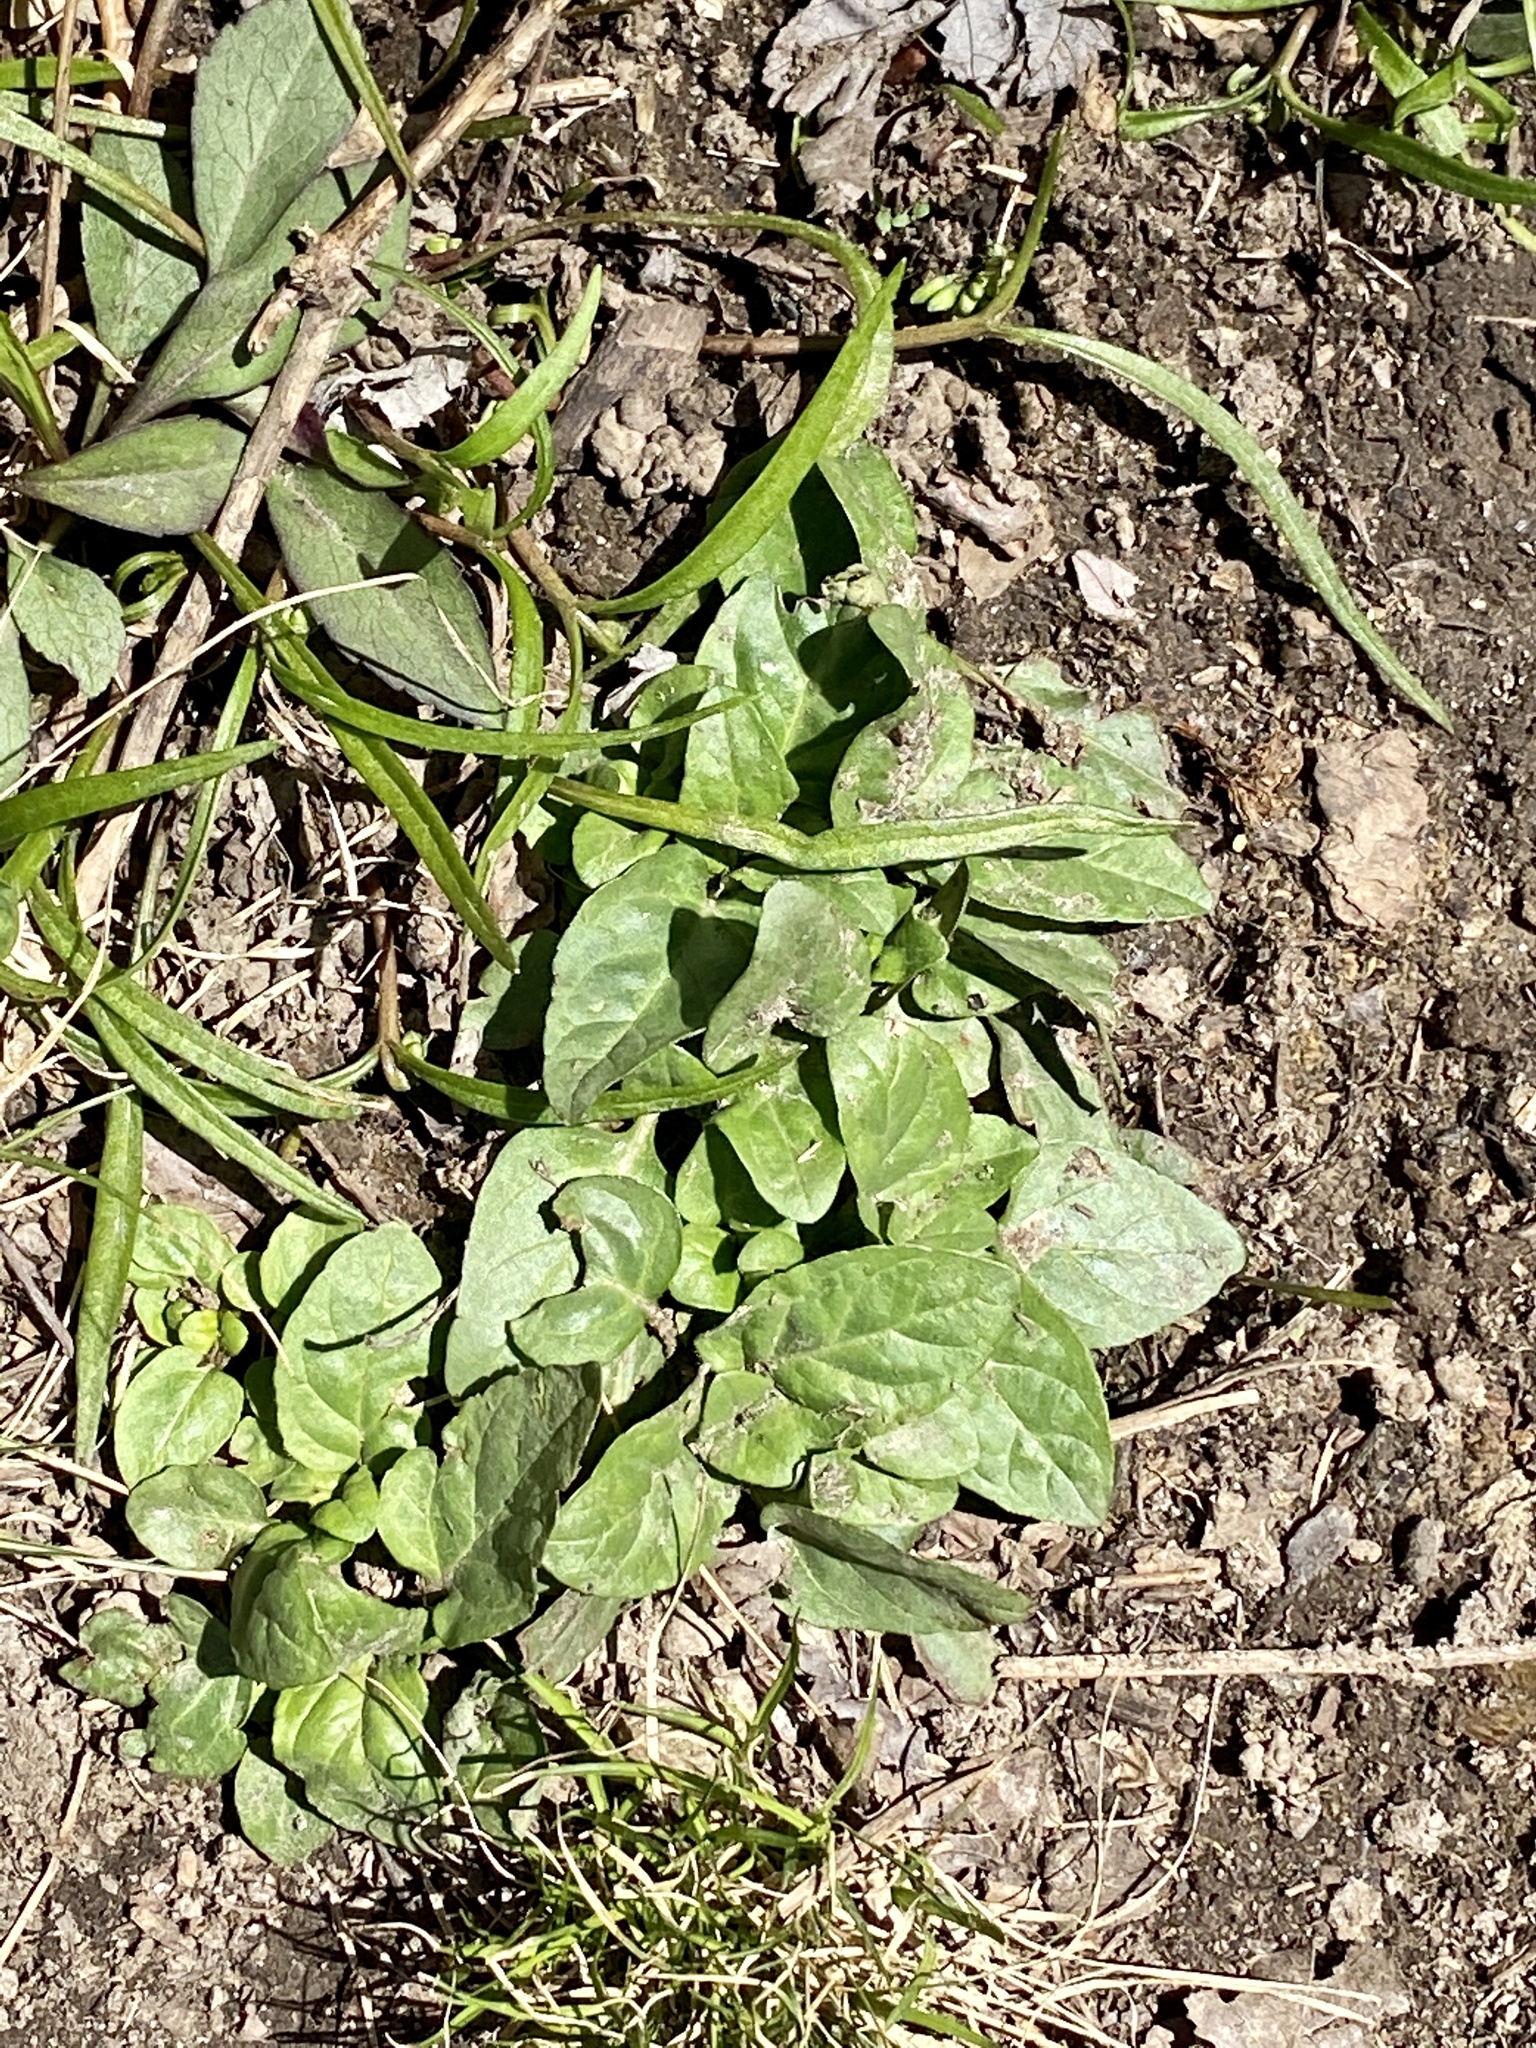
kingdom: Plantae
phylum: Tracheophyta
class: Magnoliopsida
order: Lamiales
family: Lamiaceae
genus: Prunella
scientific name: Prunella vulgaris
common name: Heal-all
